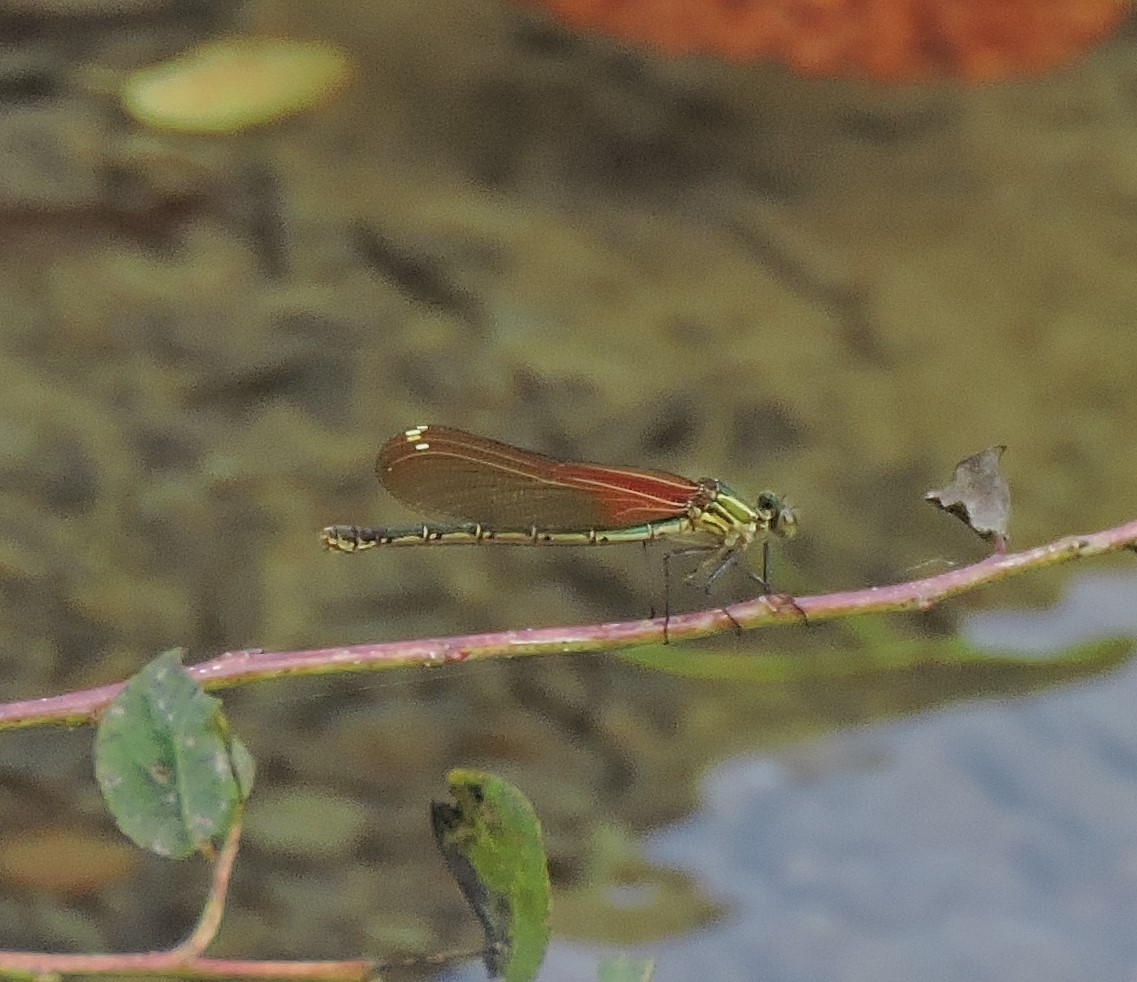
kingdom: Animalia
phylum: Arthropoda
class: Insecta
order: Odonata
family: Calopterygidae
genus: Hetaerina
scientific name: Hetaerina americana
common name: American rubyspot
